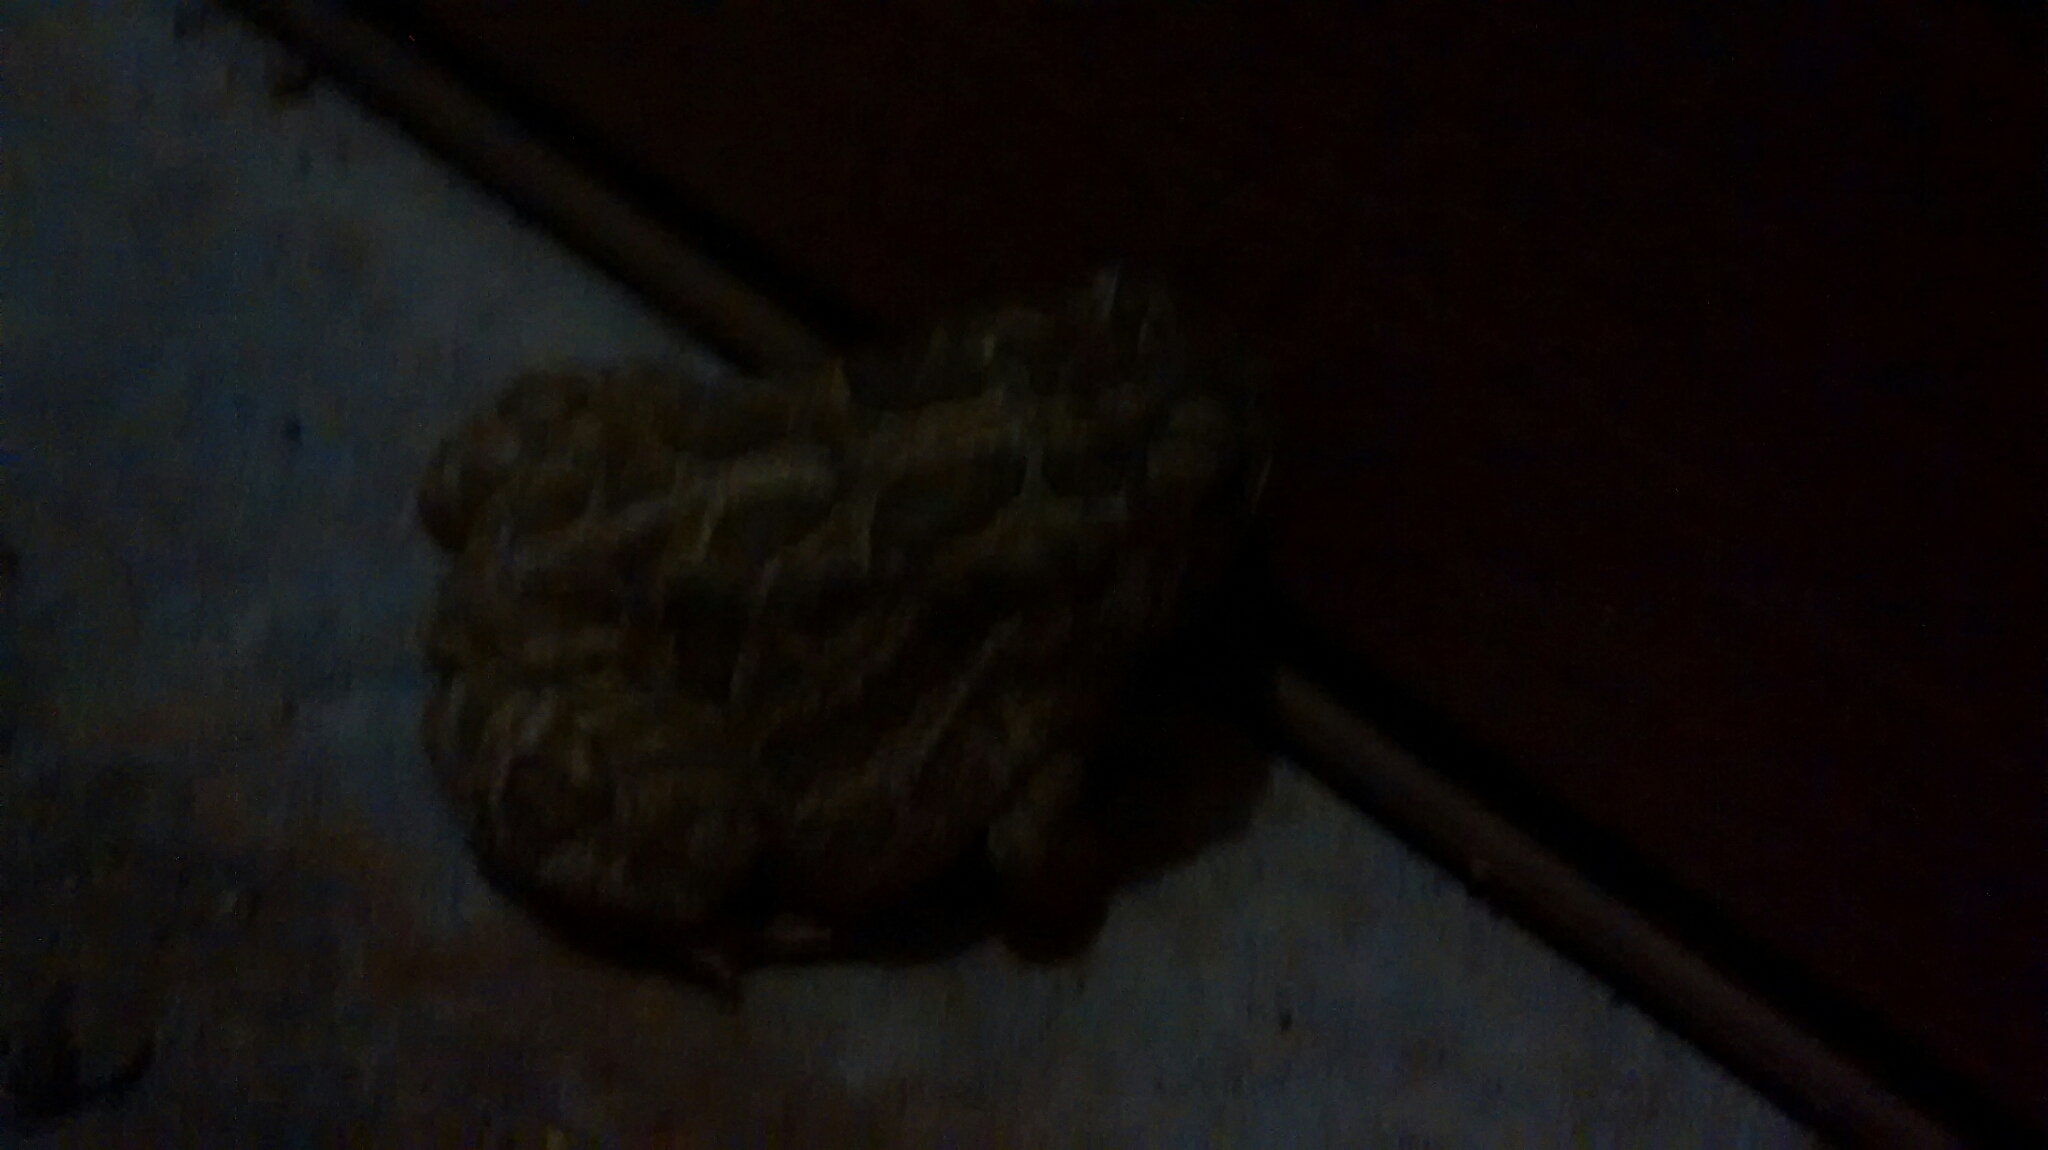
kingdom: Animalia
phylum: Chordata
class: Amphibia
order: Anura
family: Bufonidae
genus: Anaxyrus
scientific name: Anaxyrus cognatus
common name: Great plains toad
